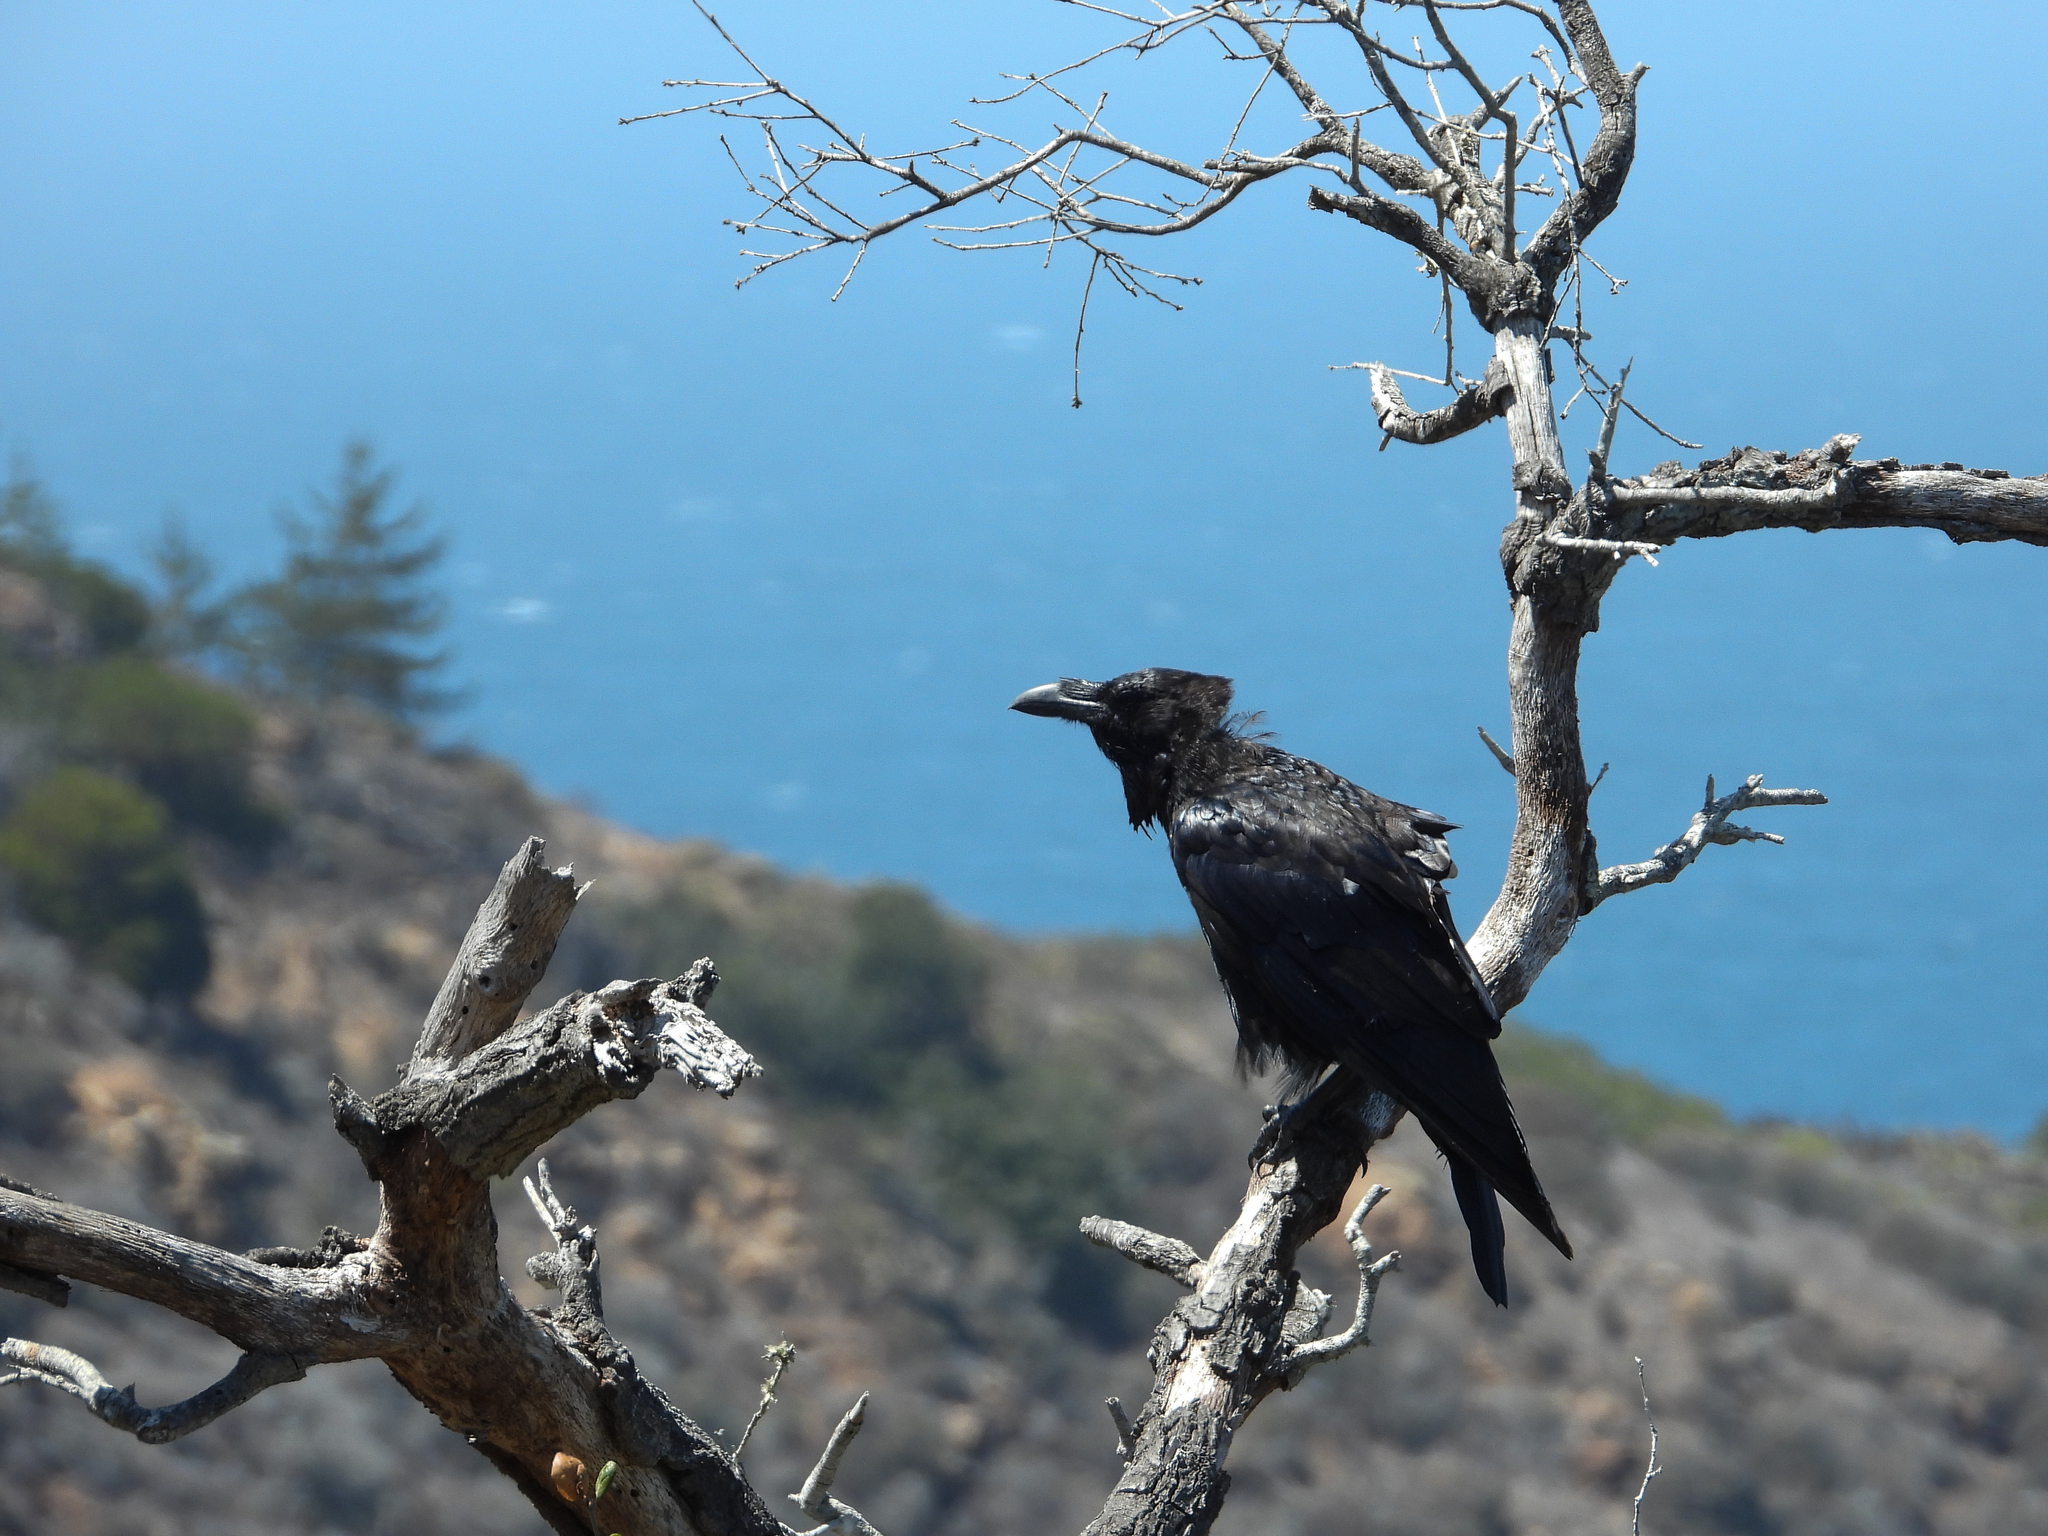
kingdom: Animalia
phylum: Chordata
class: Aves
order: Passeriformes
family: Corvidae
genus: Corvus
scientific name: Corvus corax
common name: Common raven
